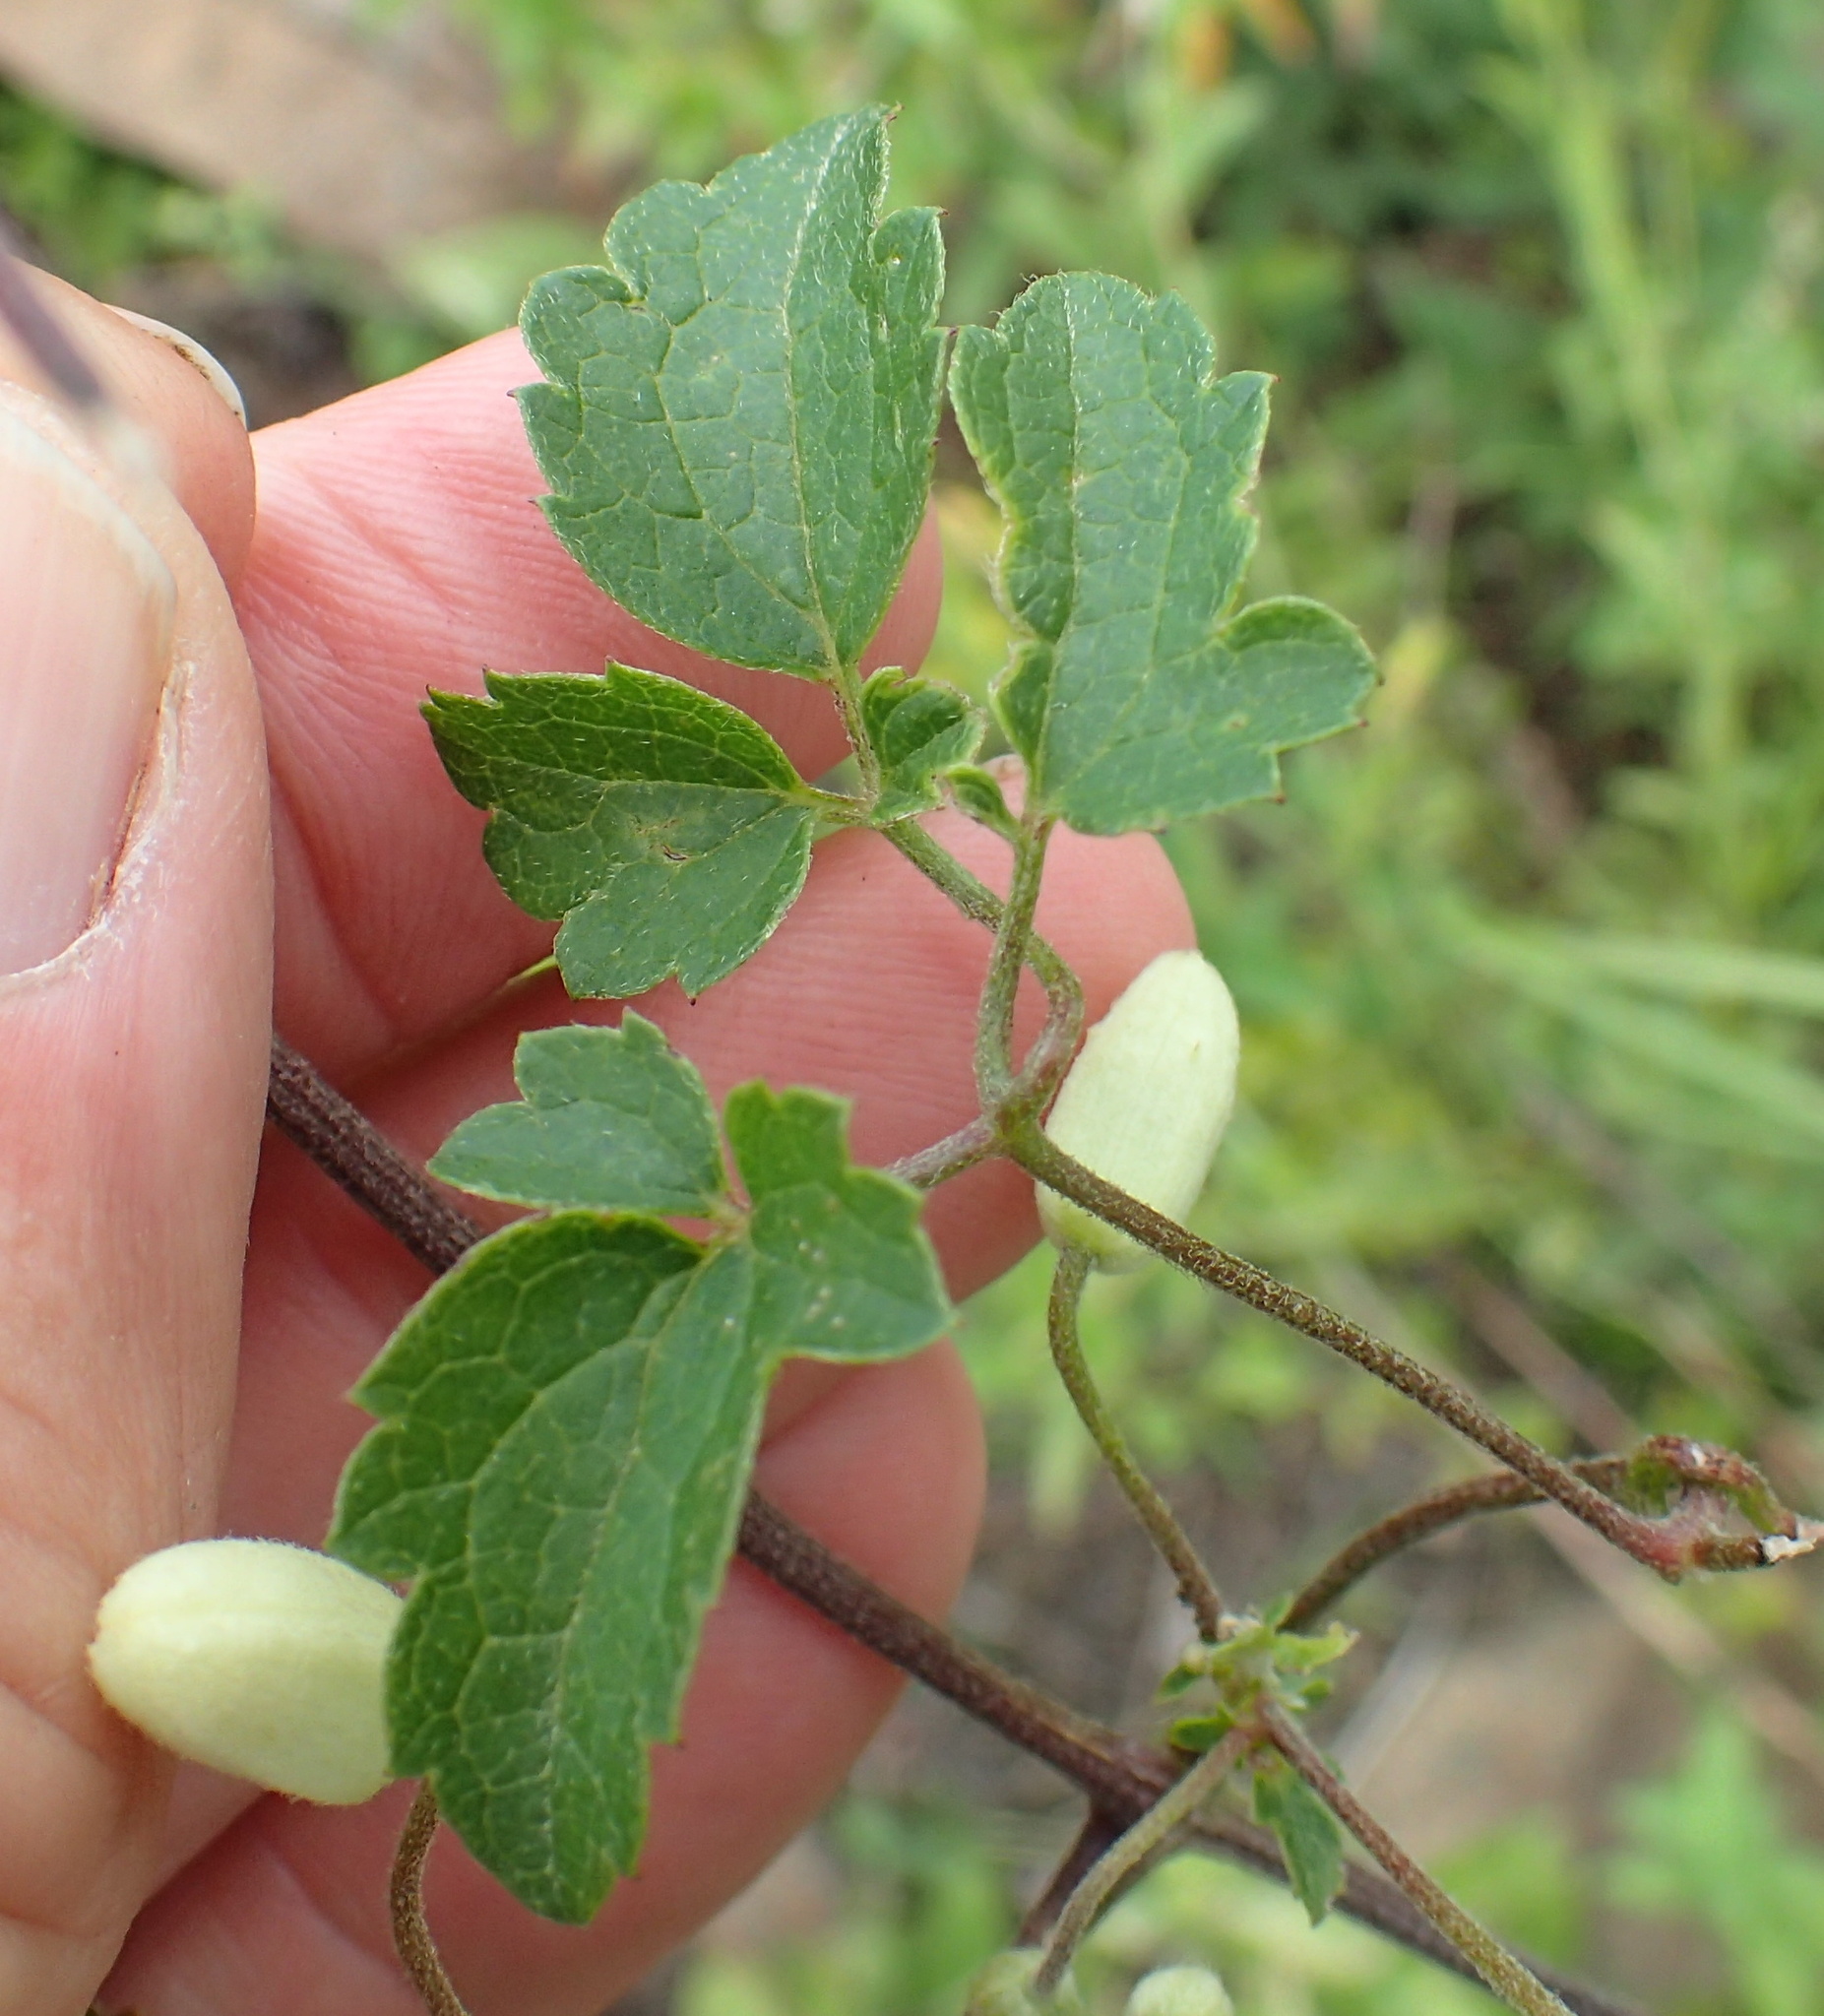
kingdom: Plantae
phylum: Tracheophyta
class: Magnoliopsida
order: Ranunculales
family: Ranunculaceae
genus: Clematis
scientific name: Clematis brachiata
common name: Traveler's-joy
